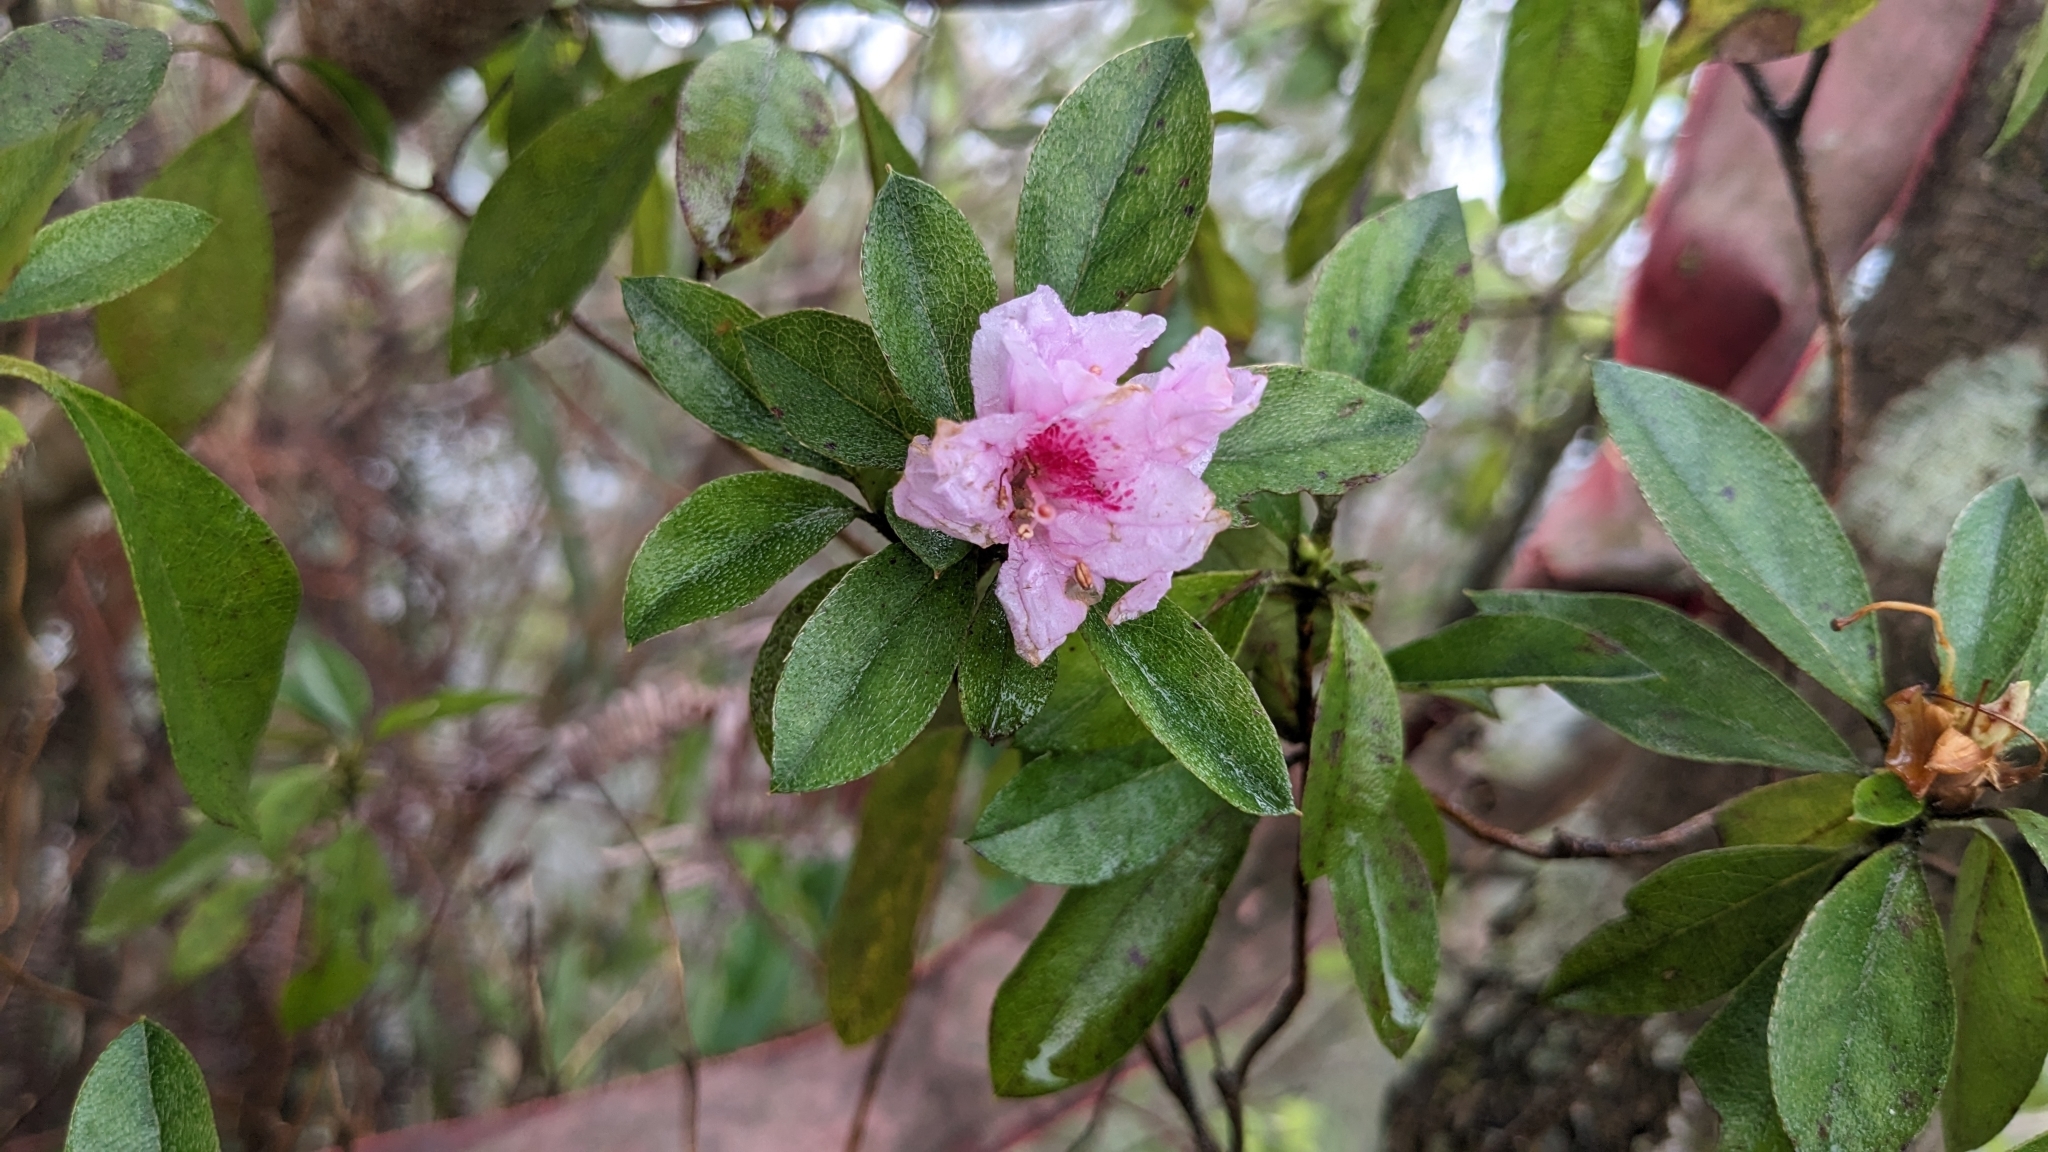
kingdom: Plantae
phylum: Tracheophyta
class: Magnoliopsida
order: Ericales
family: Ericaceae
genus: Rhododendron
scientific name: Rhododendron breviperulatum
